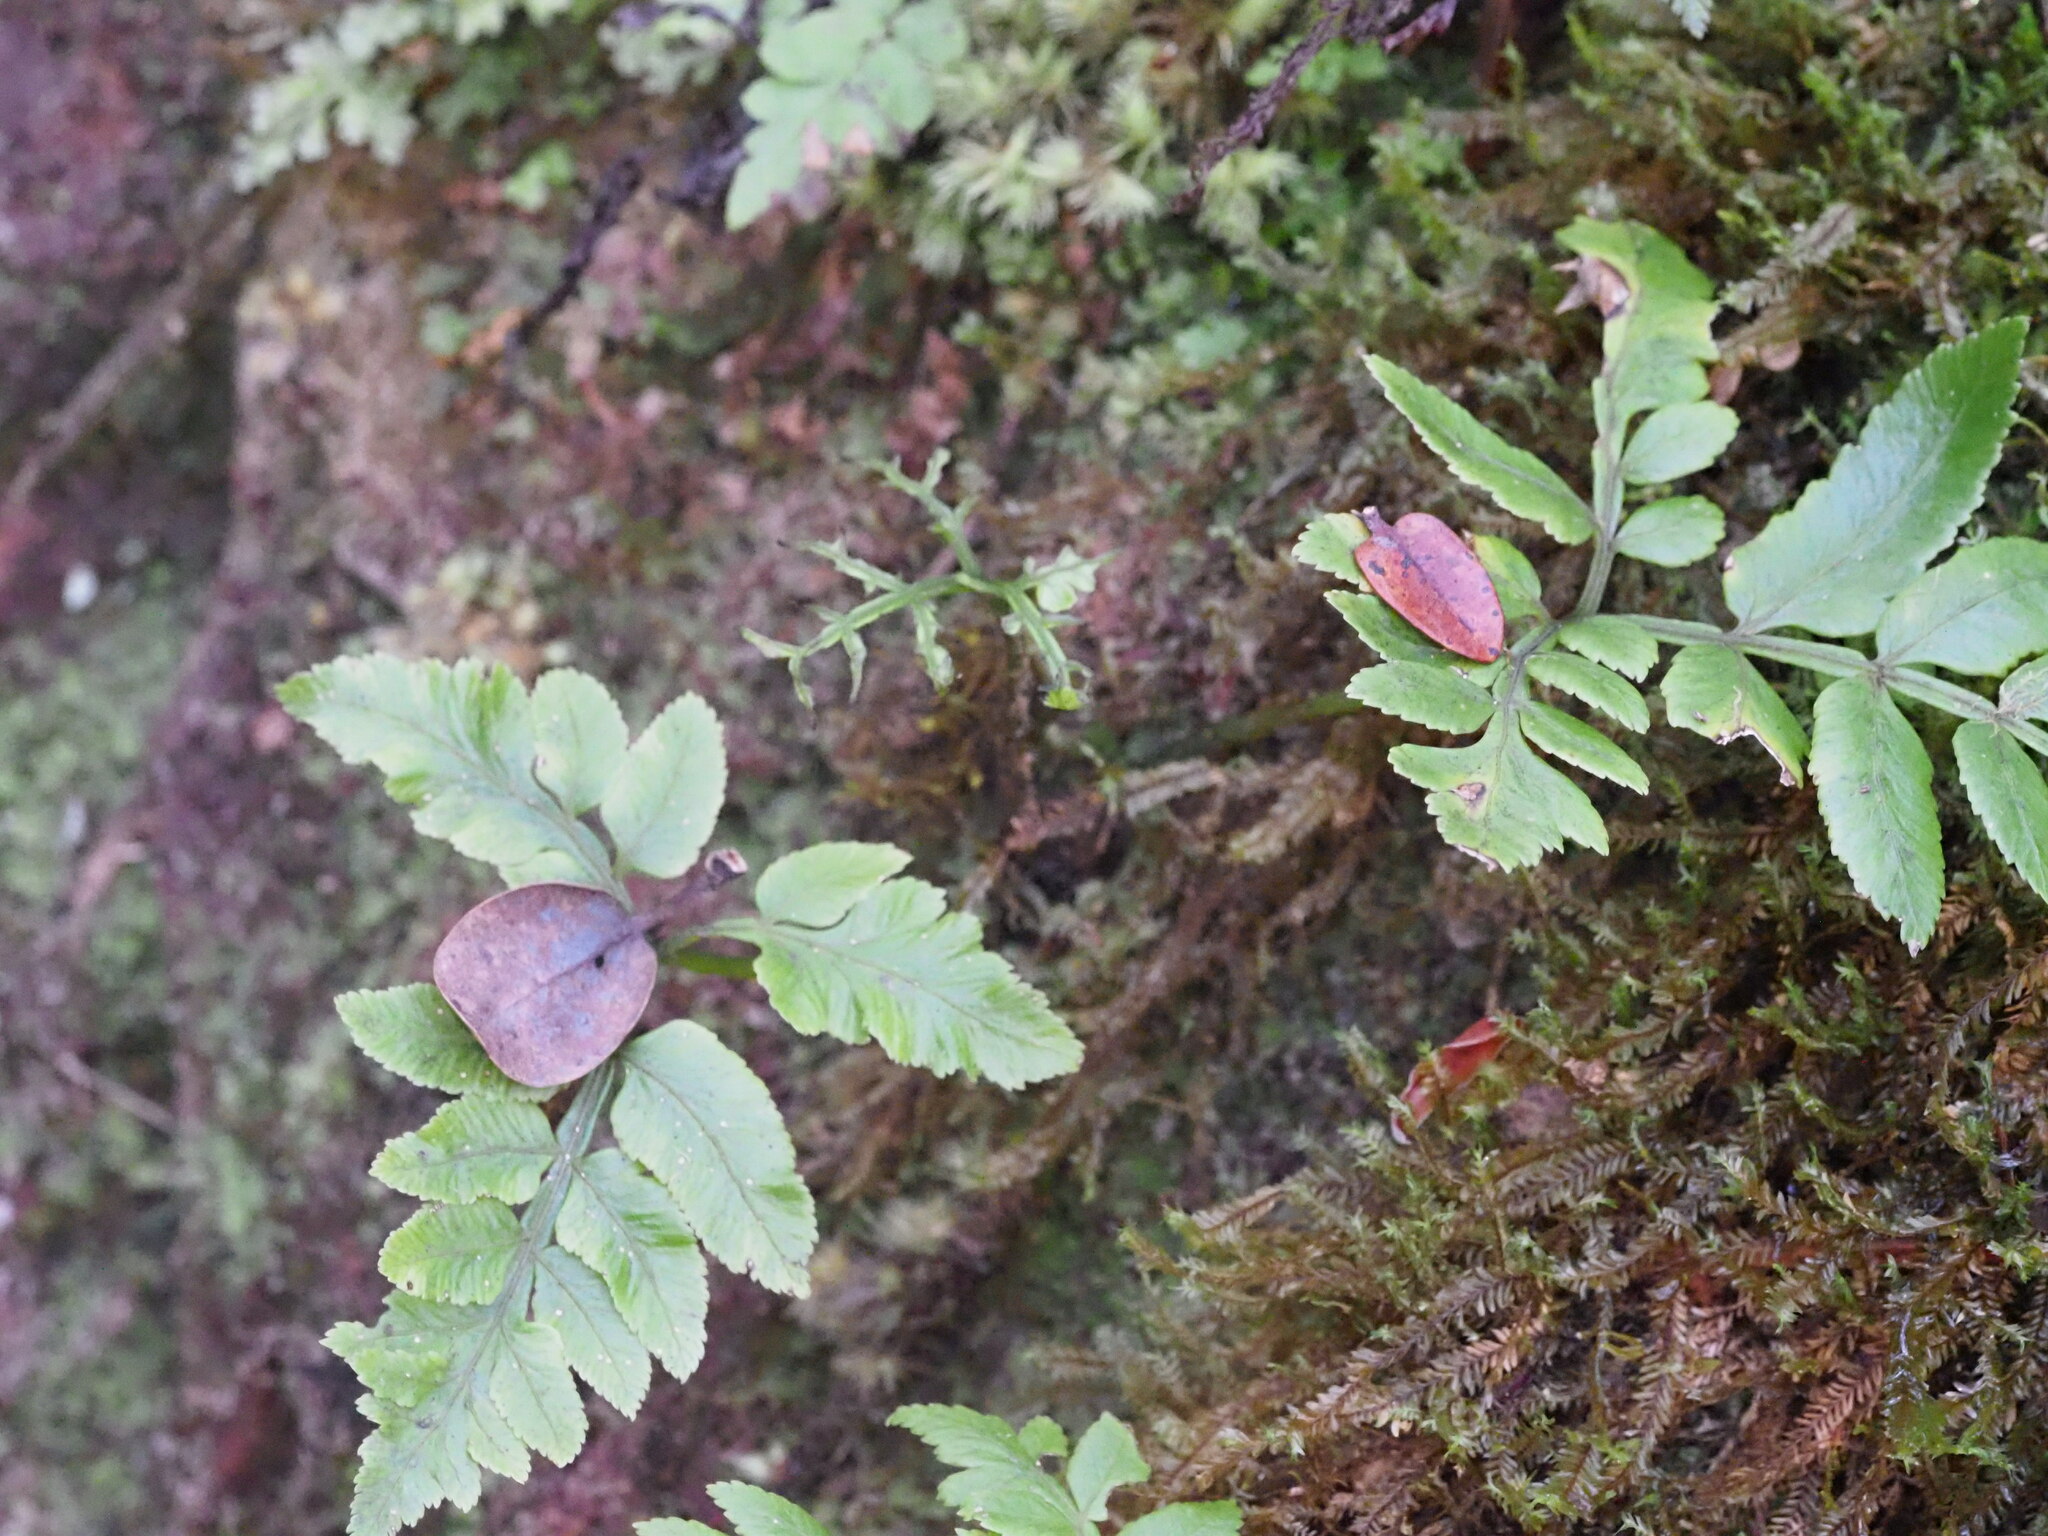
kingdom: Plantae
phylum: Tracheophyta
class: Polypodiopsida
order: Marattiales
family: Marattiaceae
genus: Marattia
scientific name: Marattia douglasii
